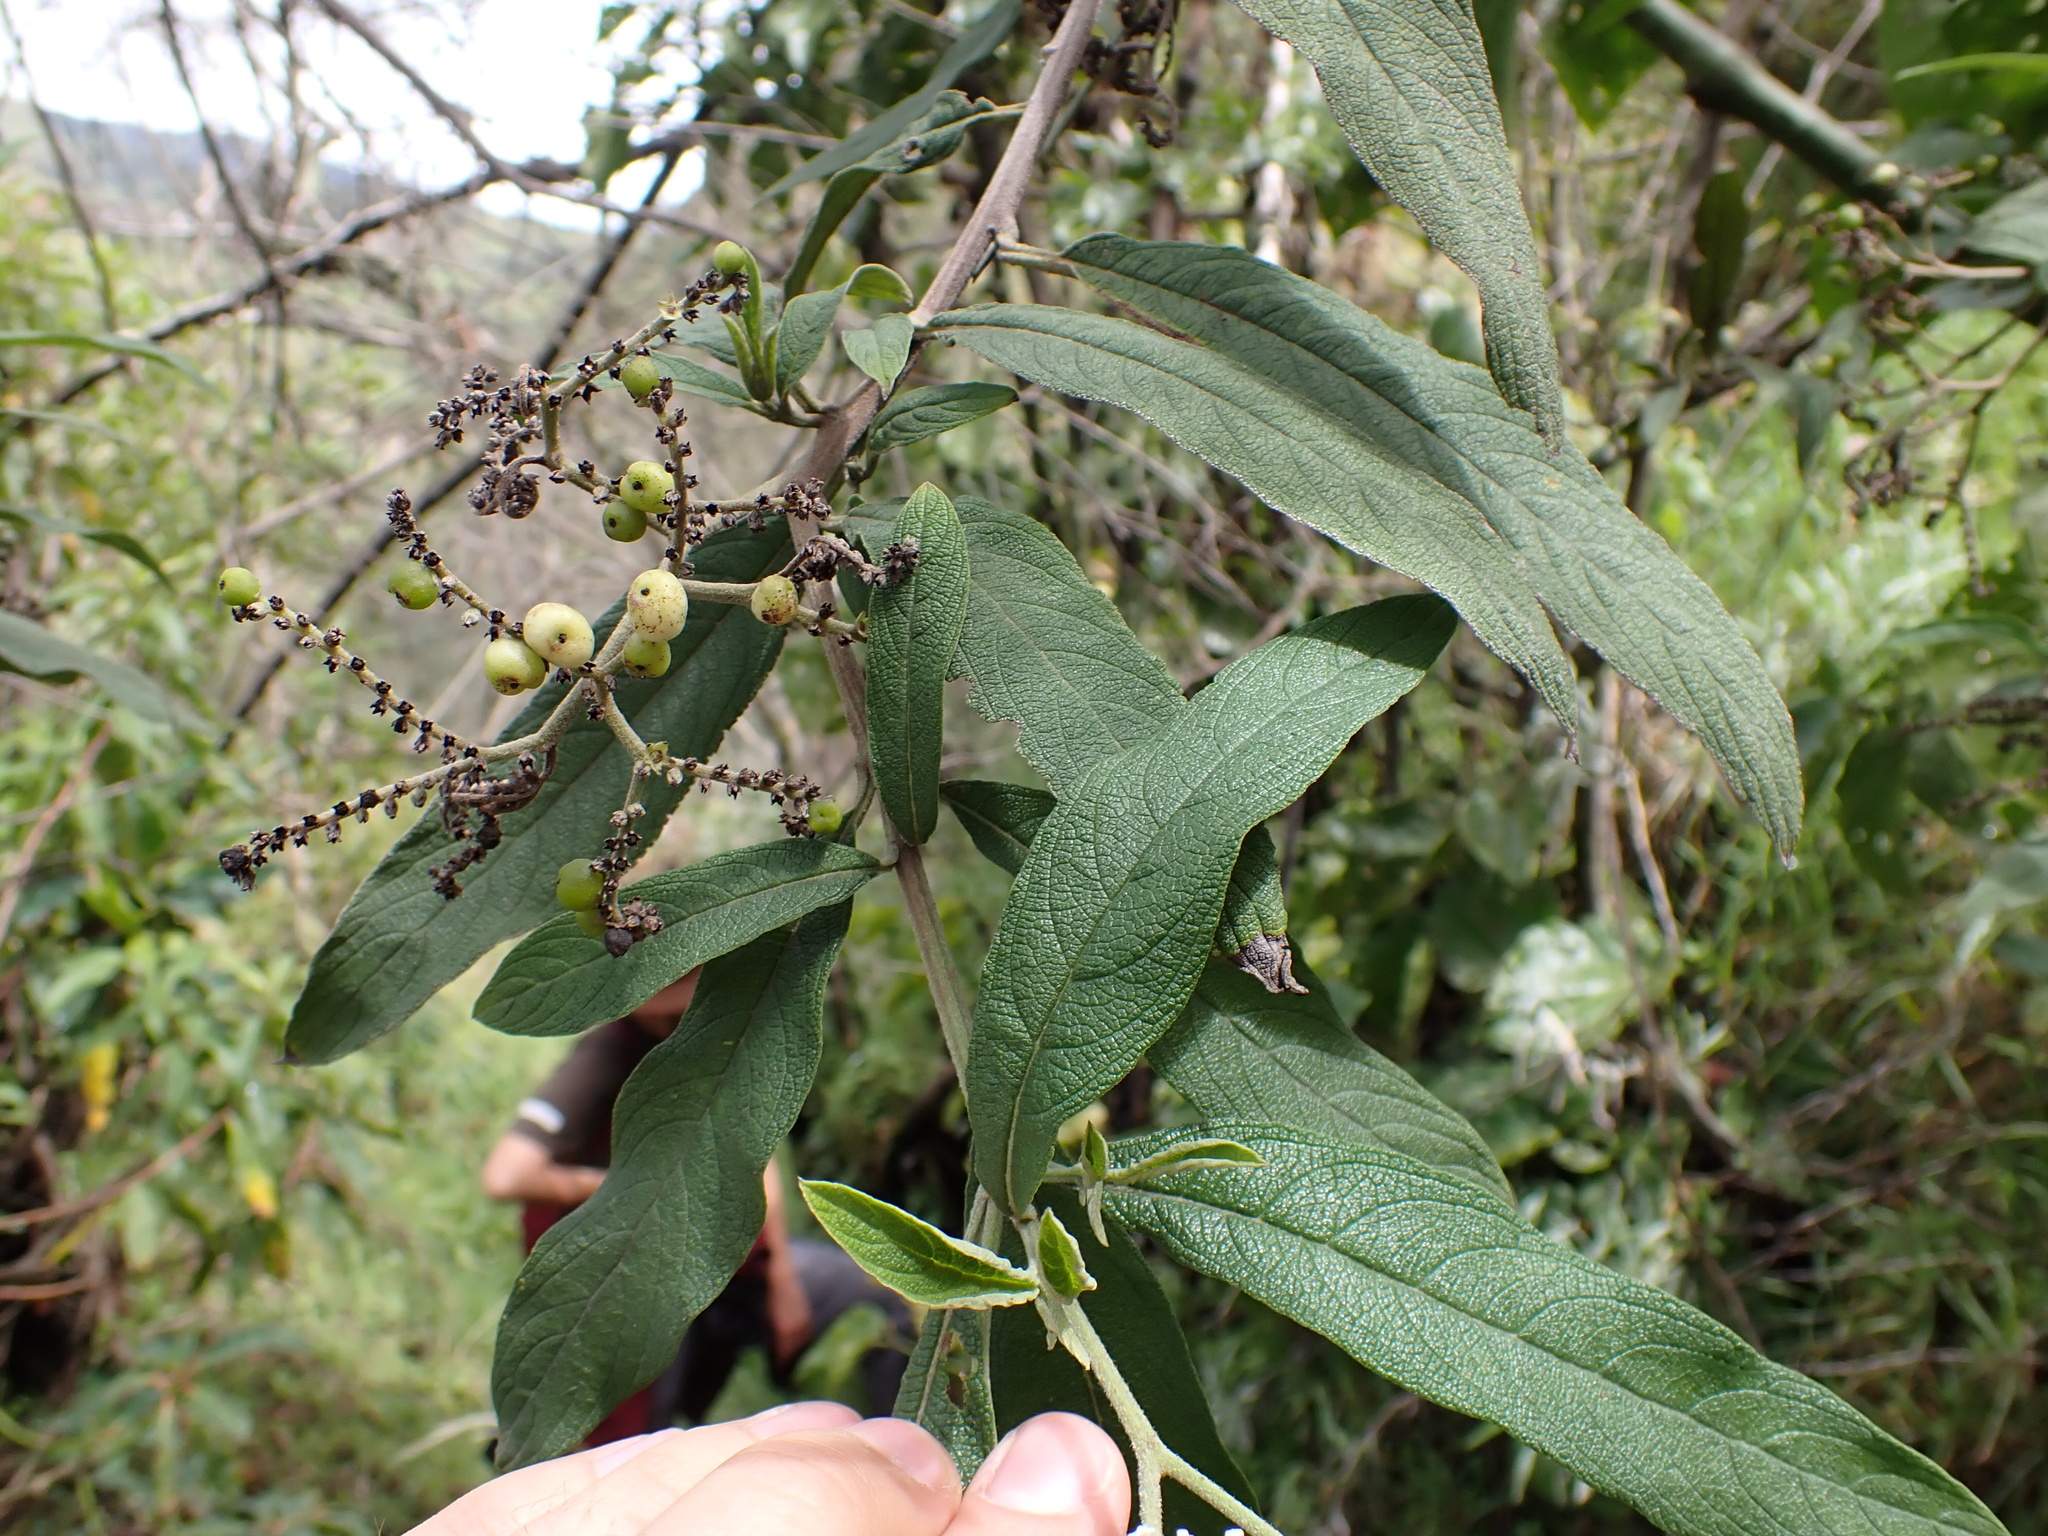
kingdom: Plantae
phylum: Tracheophyta
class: Magnoliopsida
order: Boraginales
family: Heliotropiaceae
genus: Heliotropium
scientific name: Heliotropium scabridum
